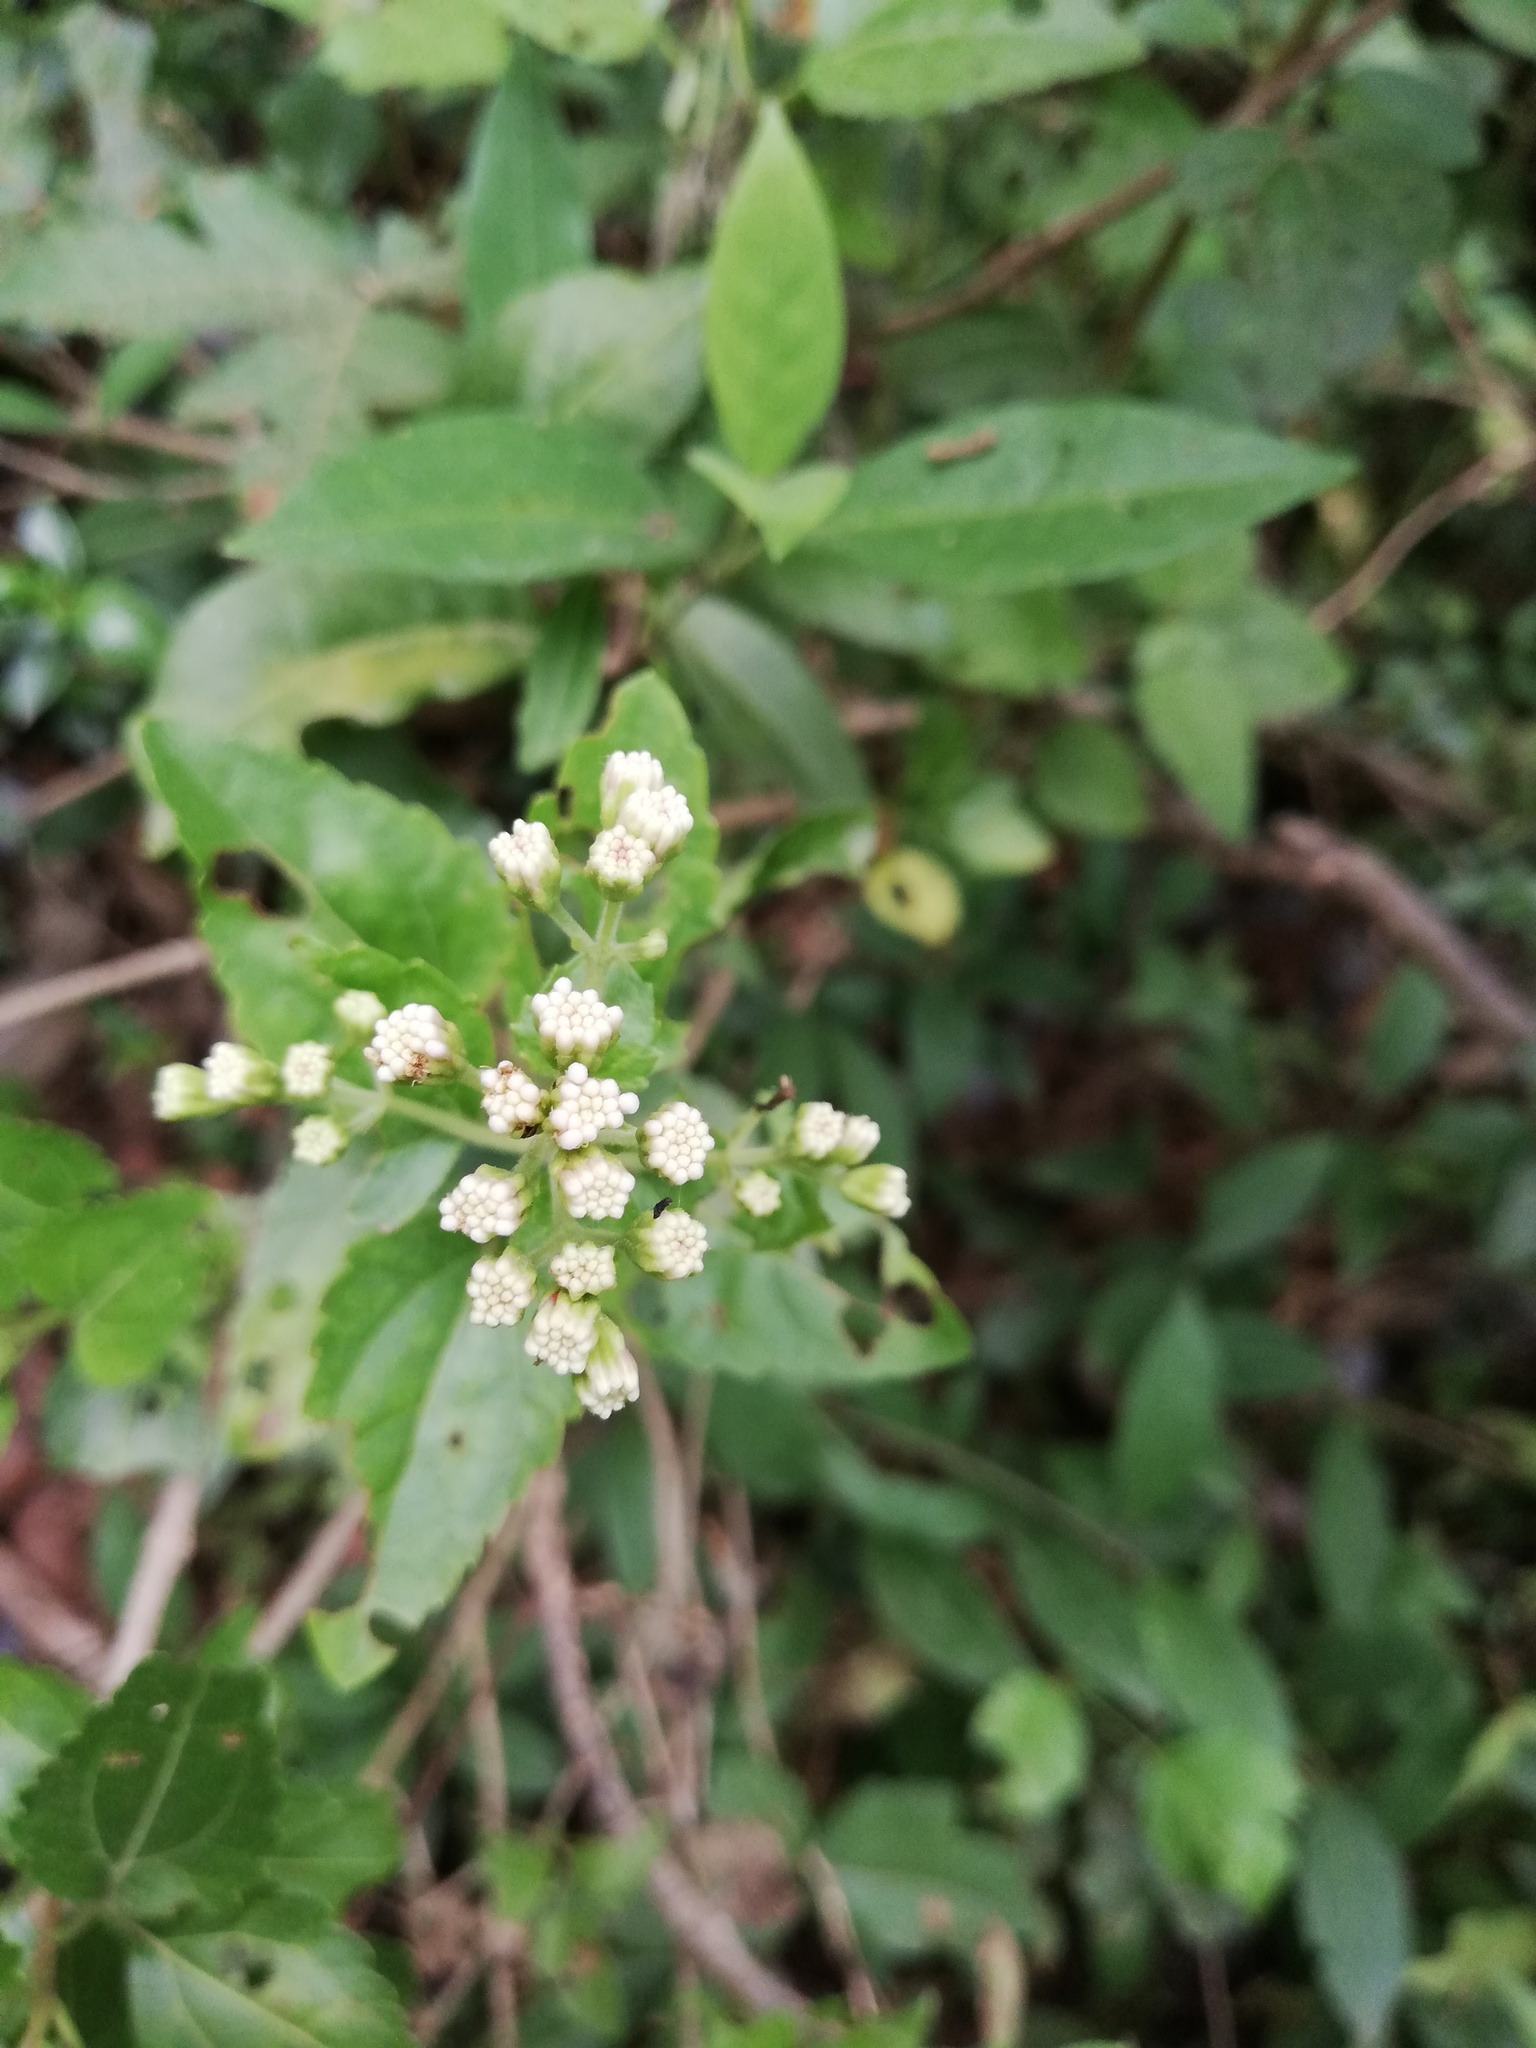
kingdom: Plantae
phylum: Tracheophyta
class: Magnoliopsida
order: Asterales
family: Asteraceae
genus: Ageratina
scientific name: Ageratina havanensis
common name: Havana snakeroot
